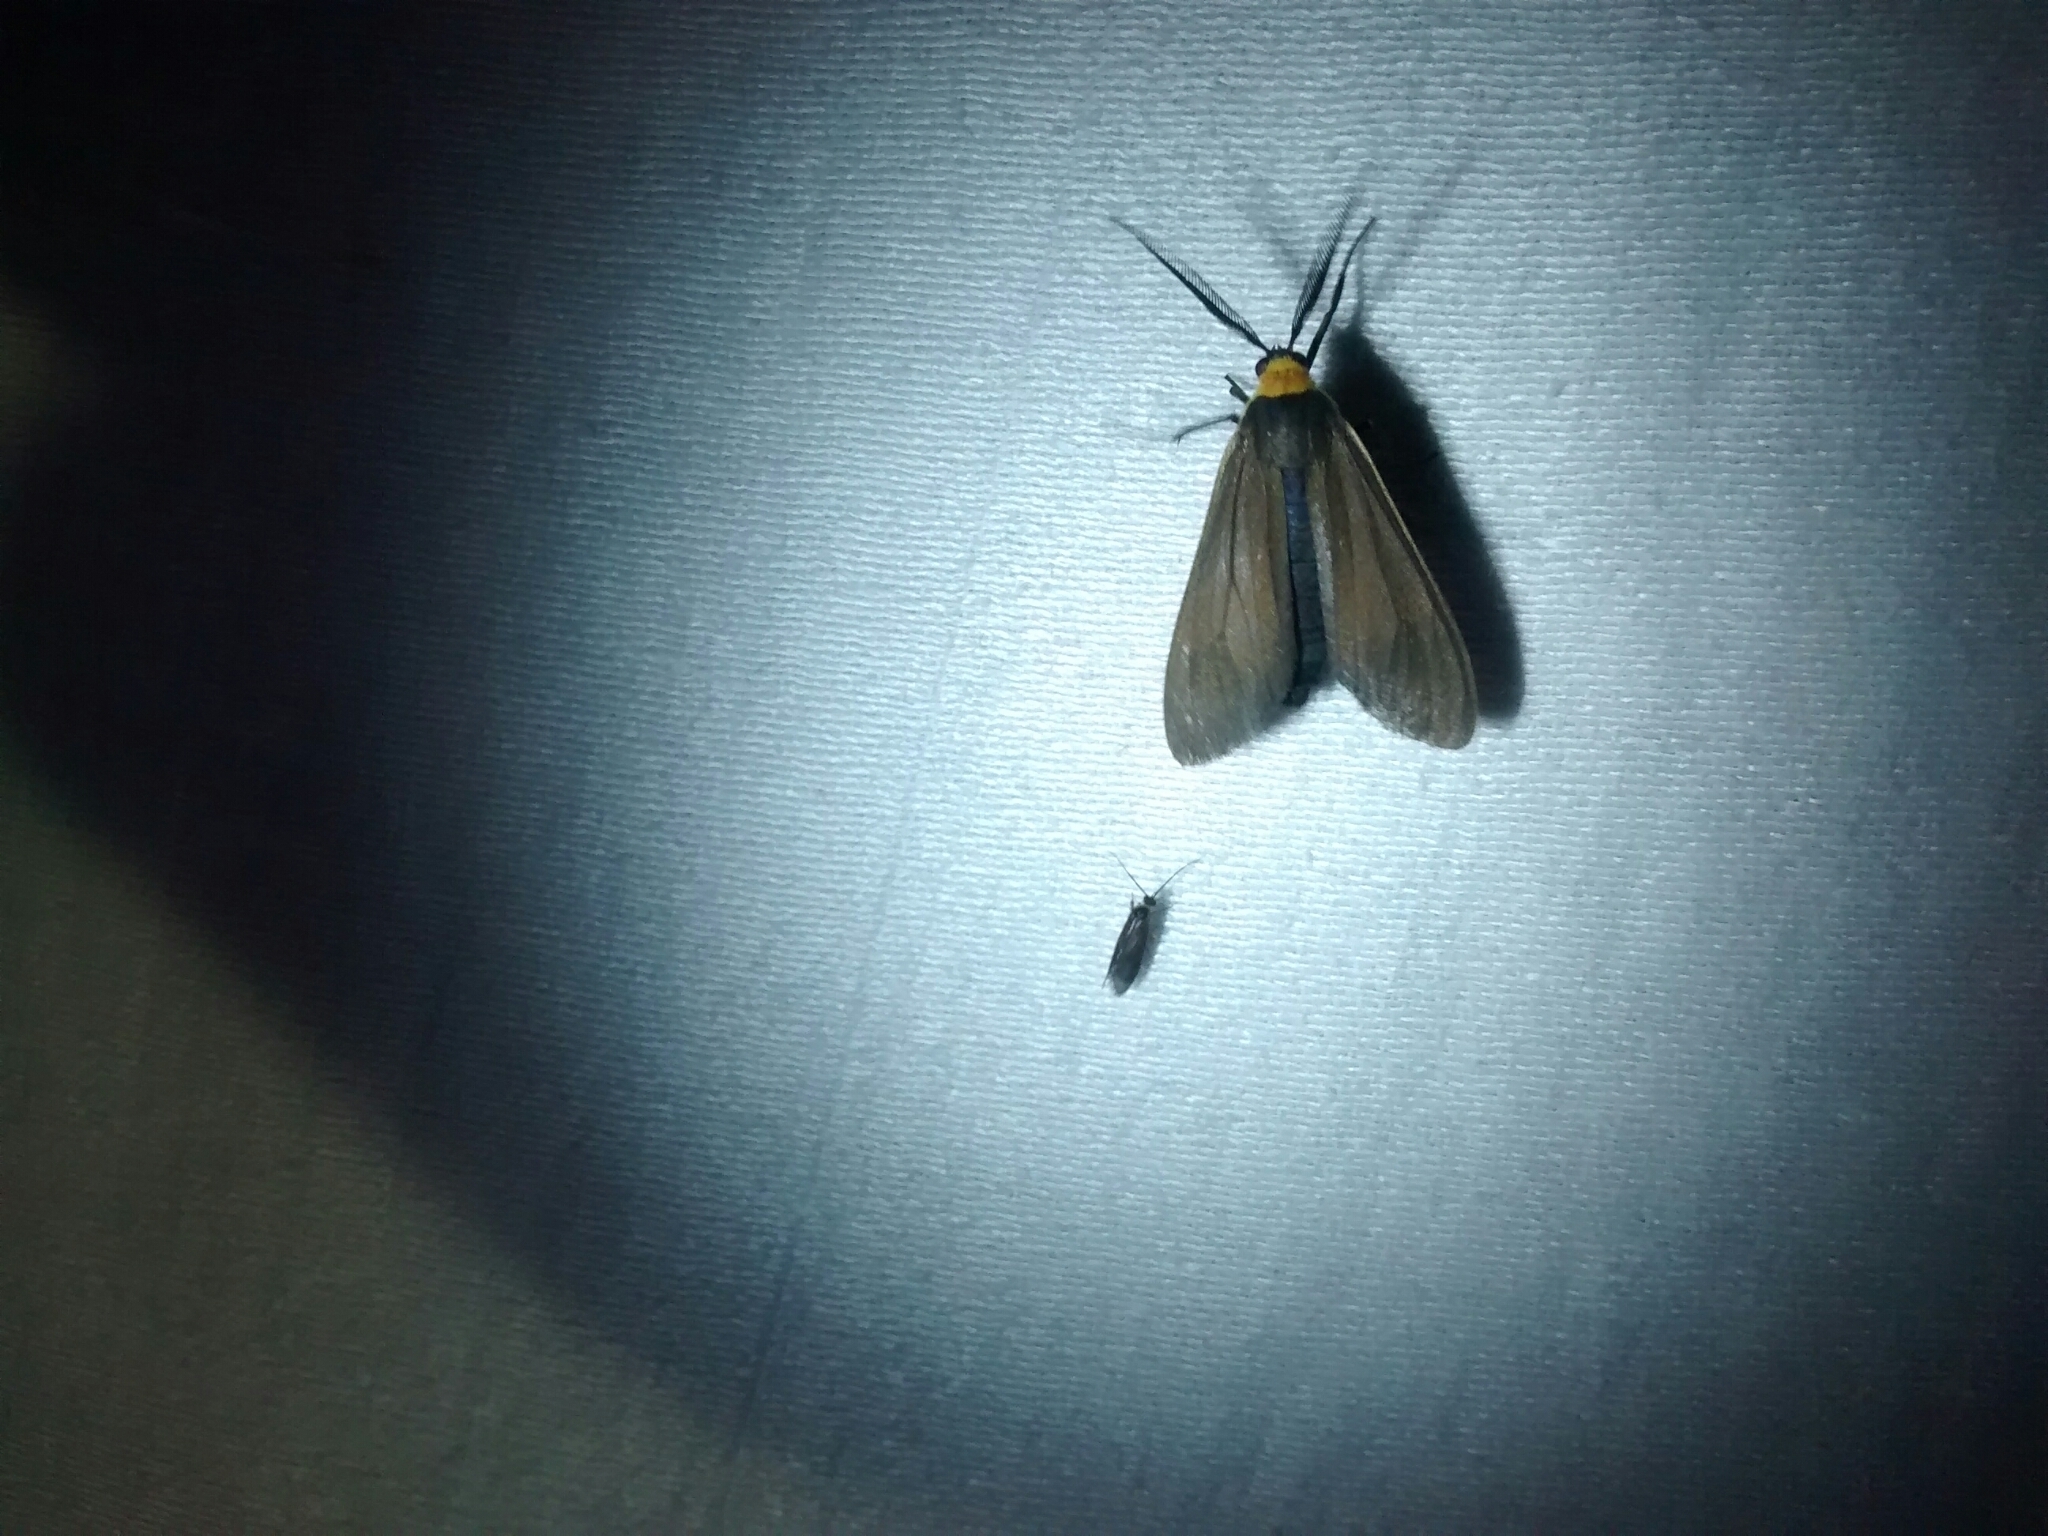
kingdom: Animalia
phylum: Arthropoda
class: Insecta
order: Lepidoptera
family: Erebidae
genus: Cisseps
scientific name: Cisseps fulvicollis
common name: Yellow-collared scape moth
